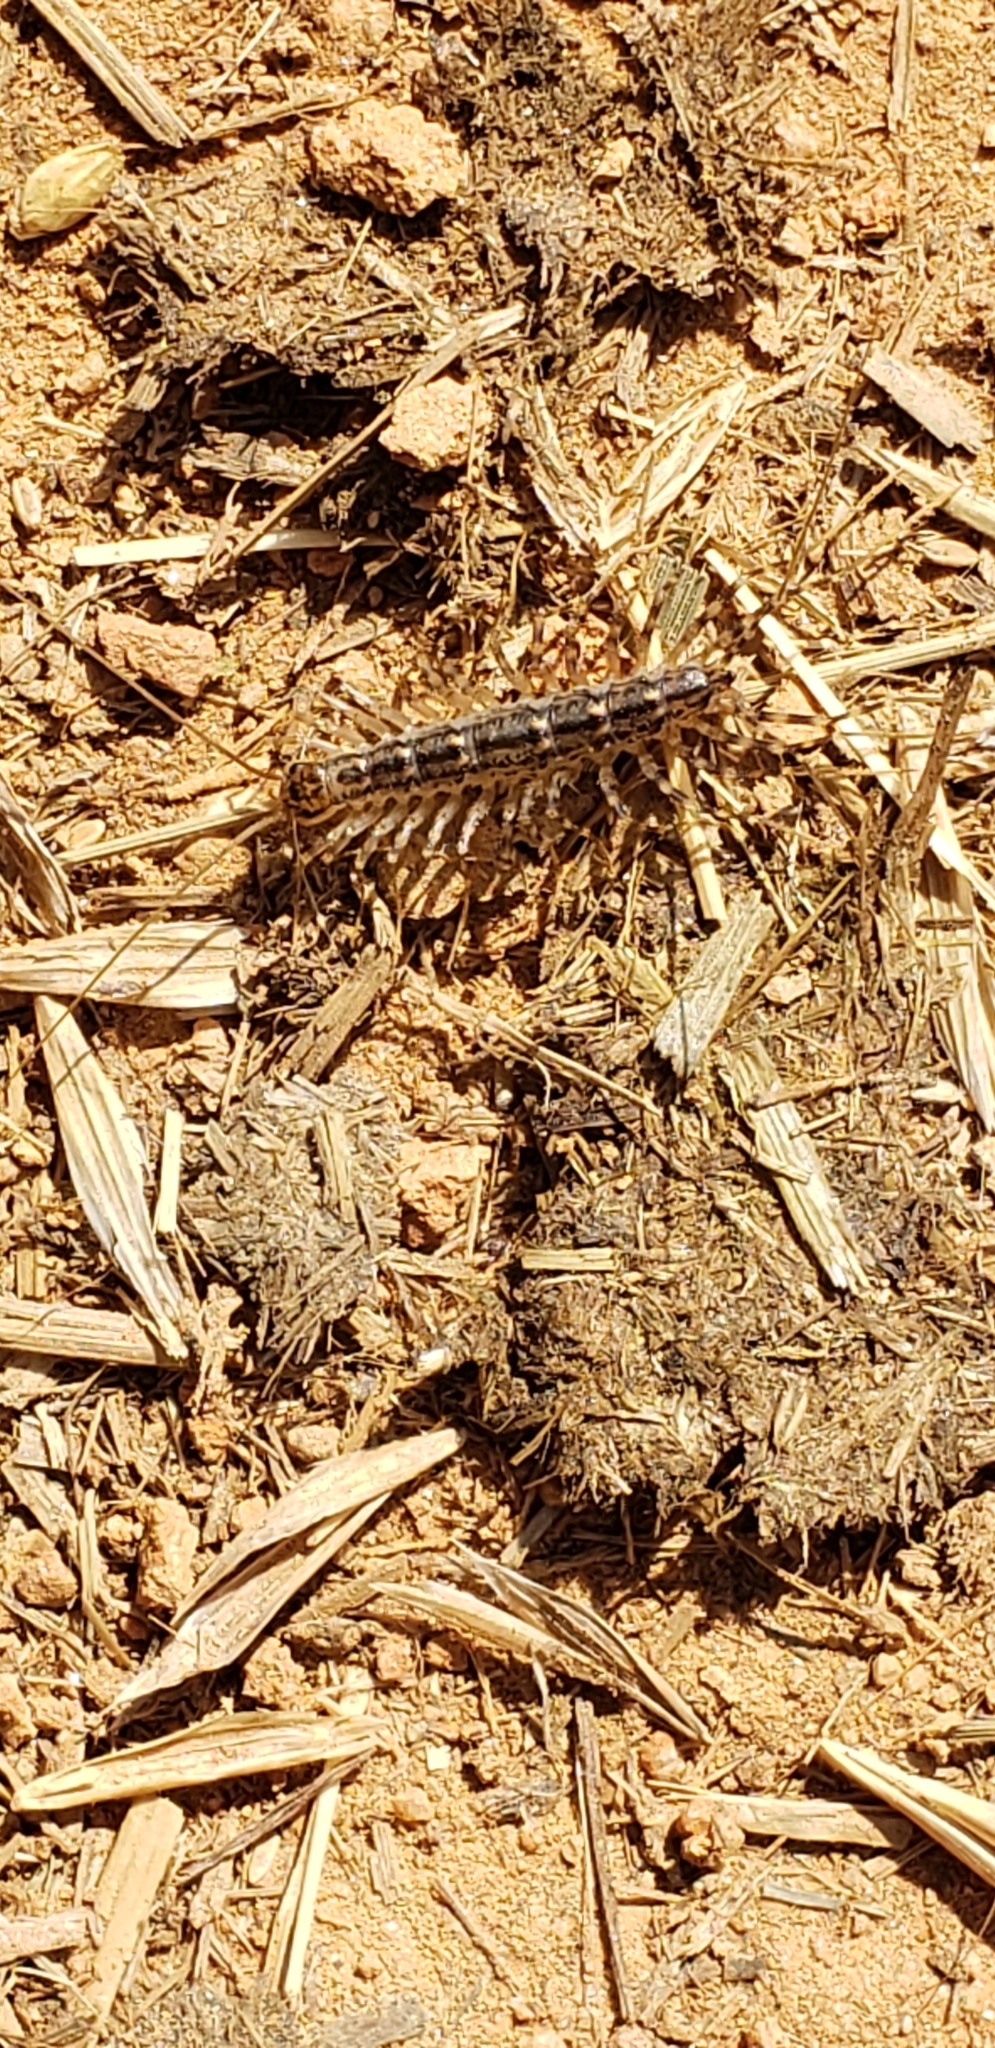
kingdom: Animalia
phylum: Arthropoda
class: Chilopoda
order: Scutigeromorpha
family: Scutigeridae
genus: Scutigera
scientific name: Scutigera coleoptrata
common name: House centipede
